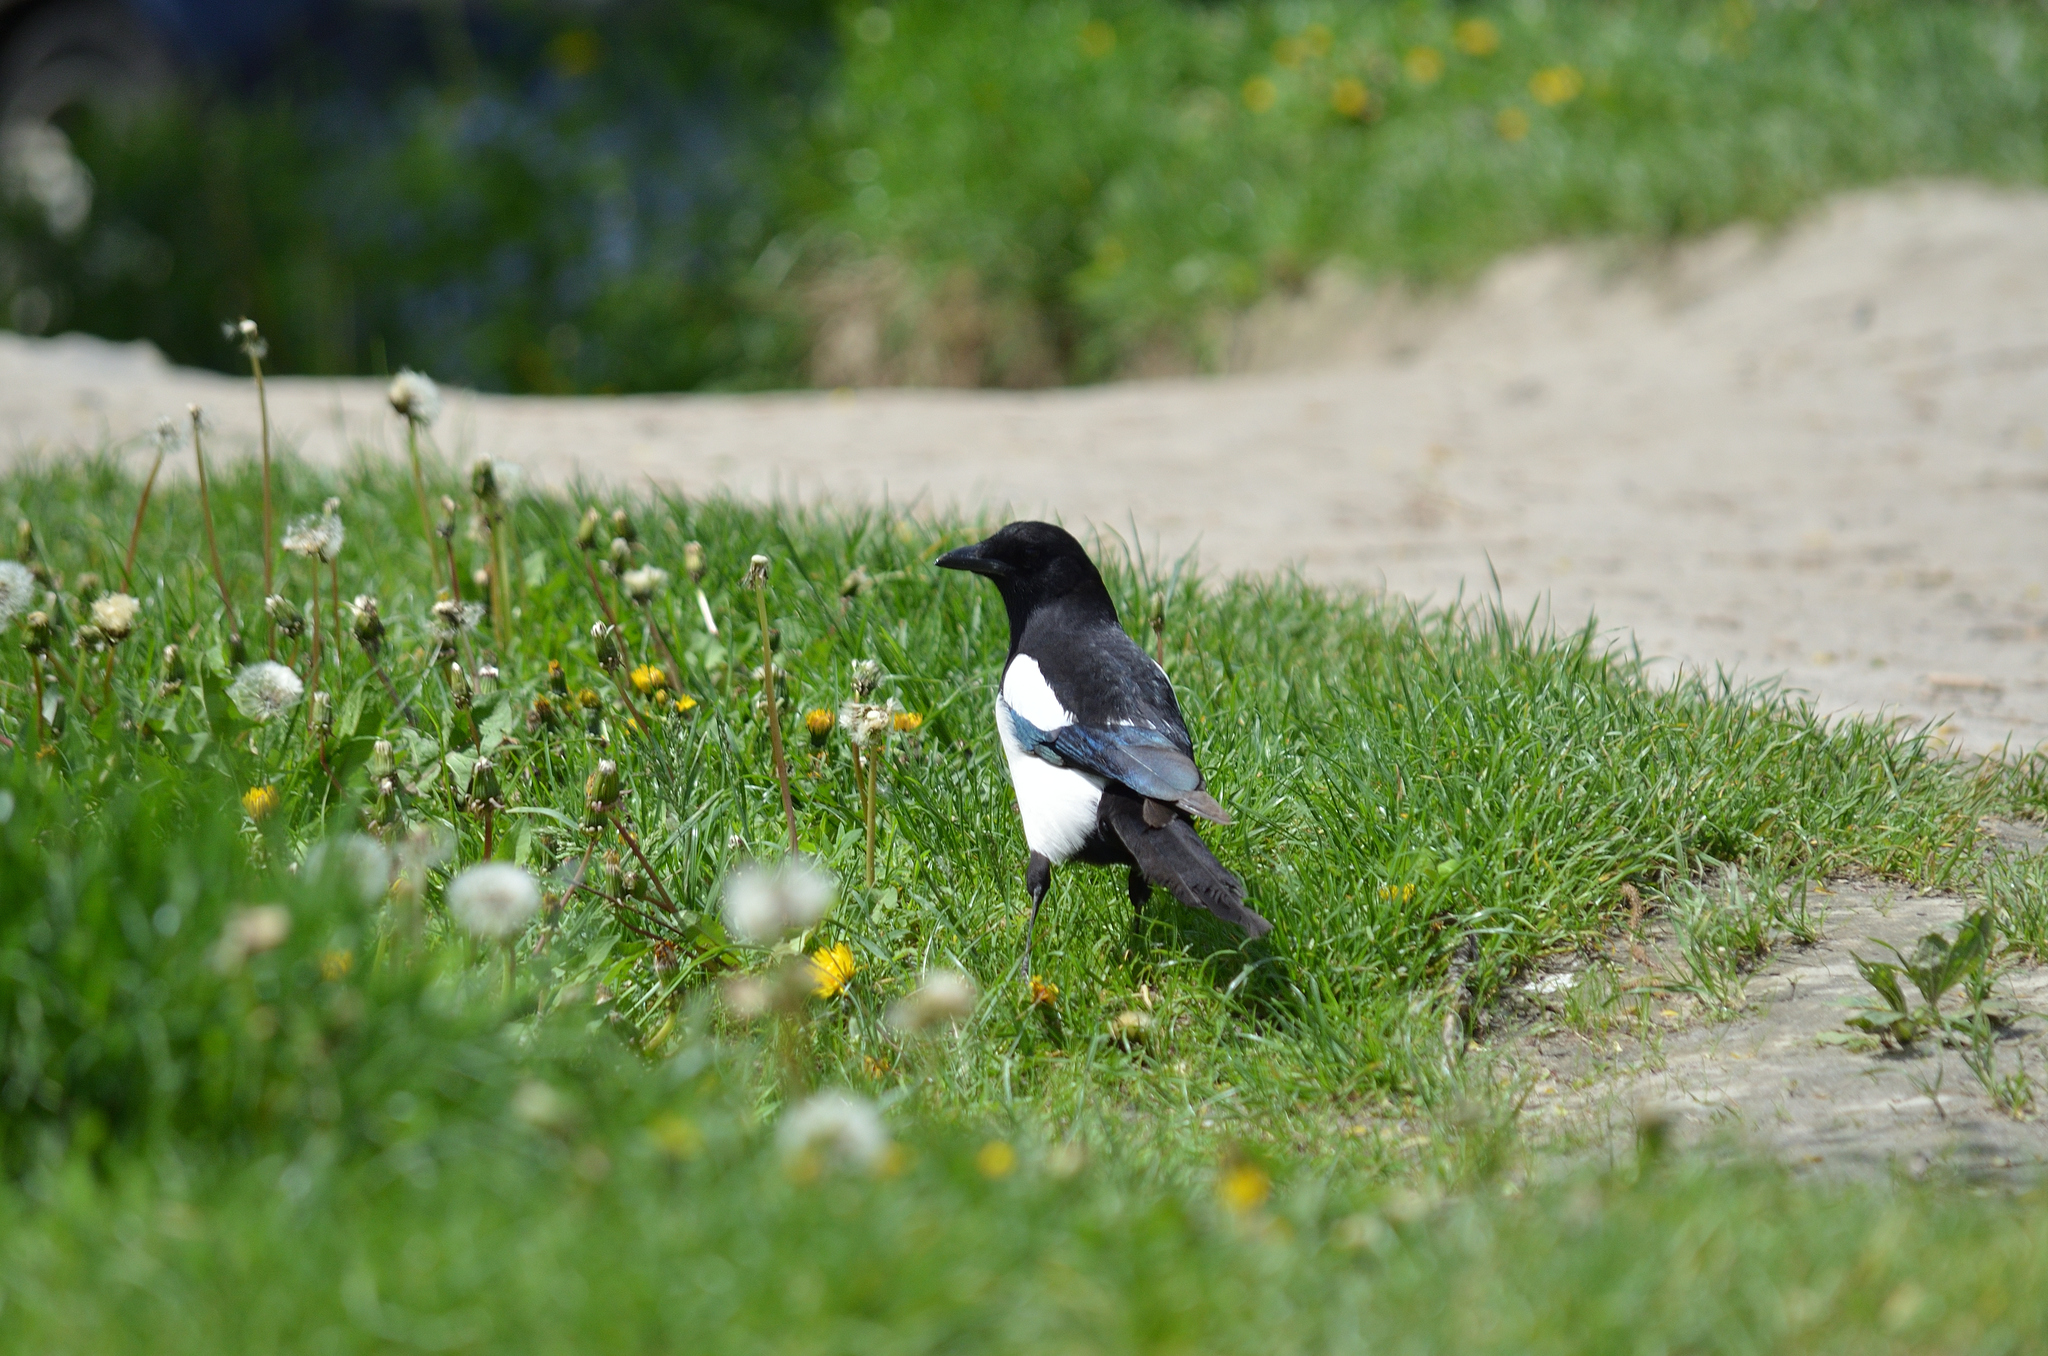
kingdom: Animalia
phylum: Chordata
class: Aves
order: Passeriformes
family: Corvidae
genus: Pica
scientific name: Pica pica
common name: Eurasian magpie
